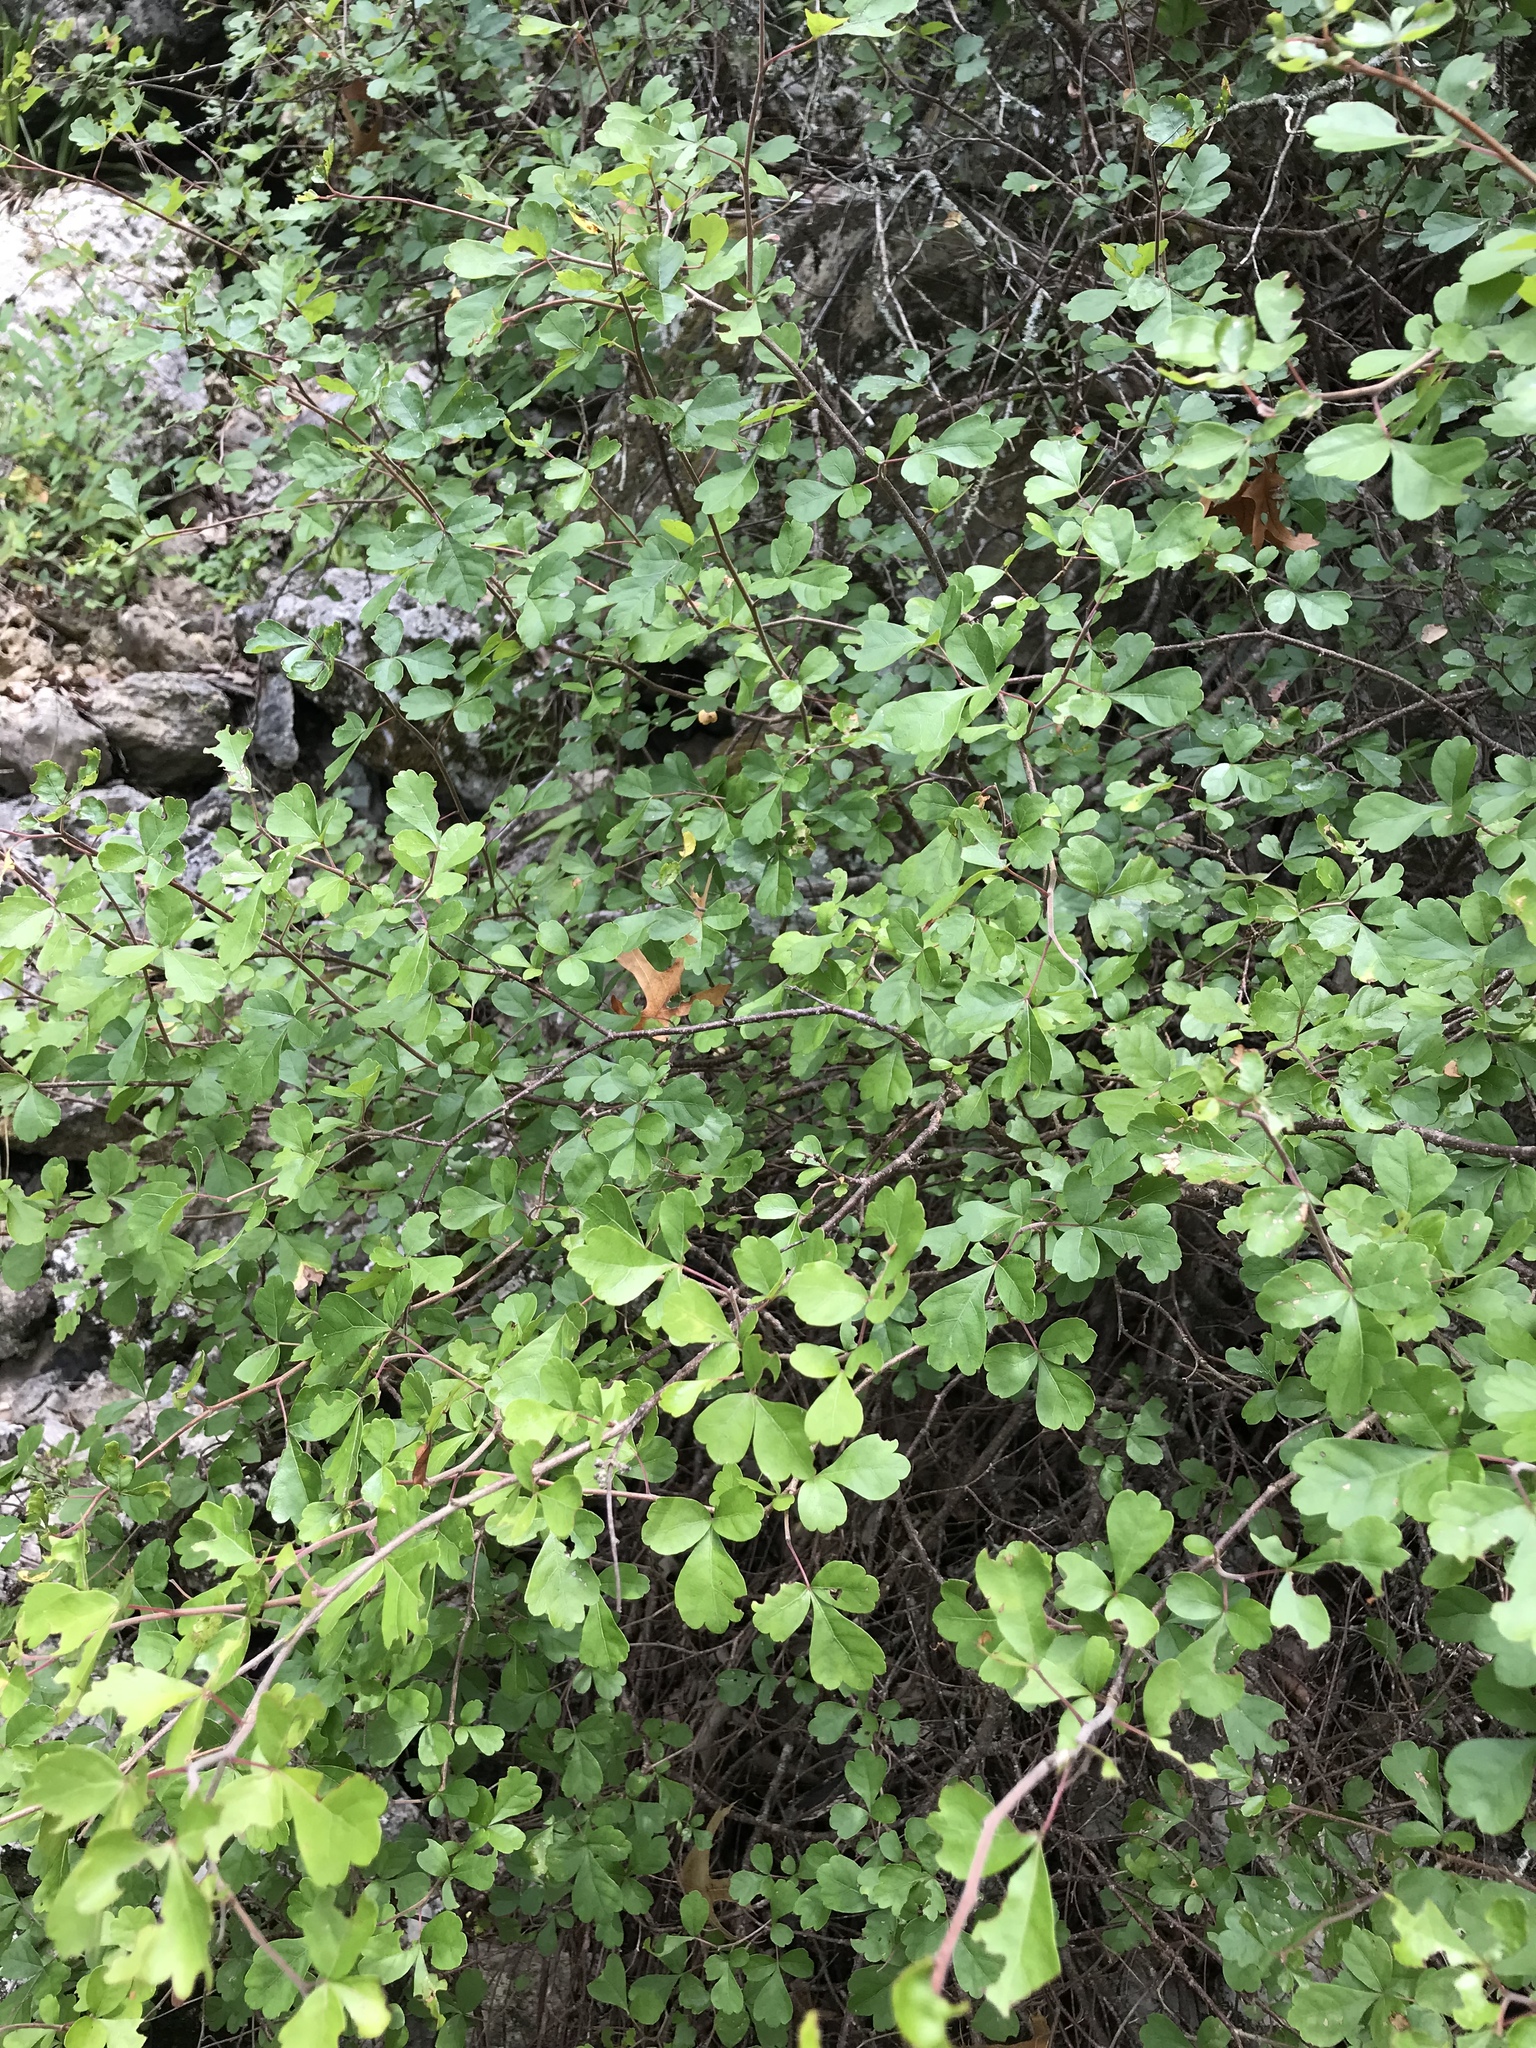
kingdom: Plantae
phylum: Tracheophyta
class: Magnoliopsida
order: Sapindales
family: Anacardiaceae
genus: Rhus
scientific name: Rhus aromatica
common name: Aromatic sumac
